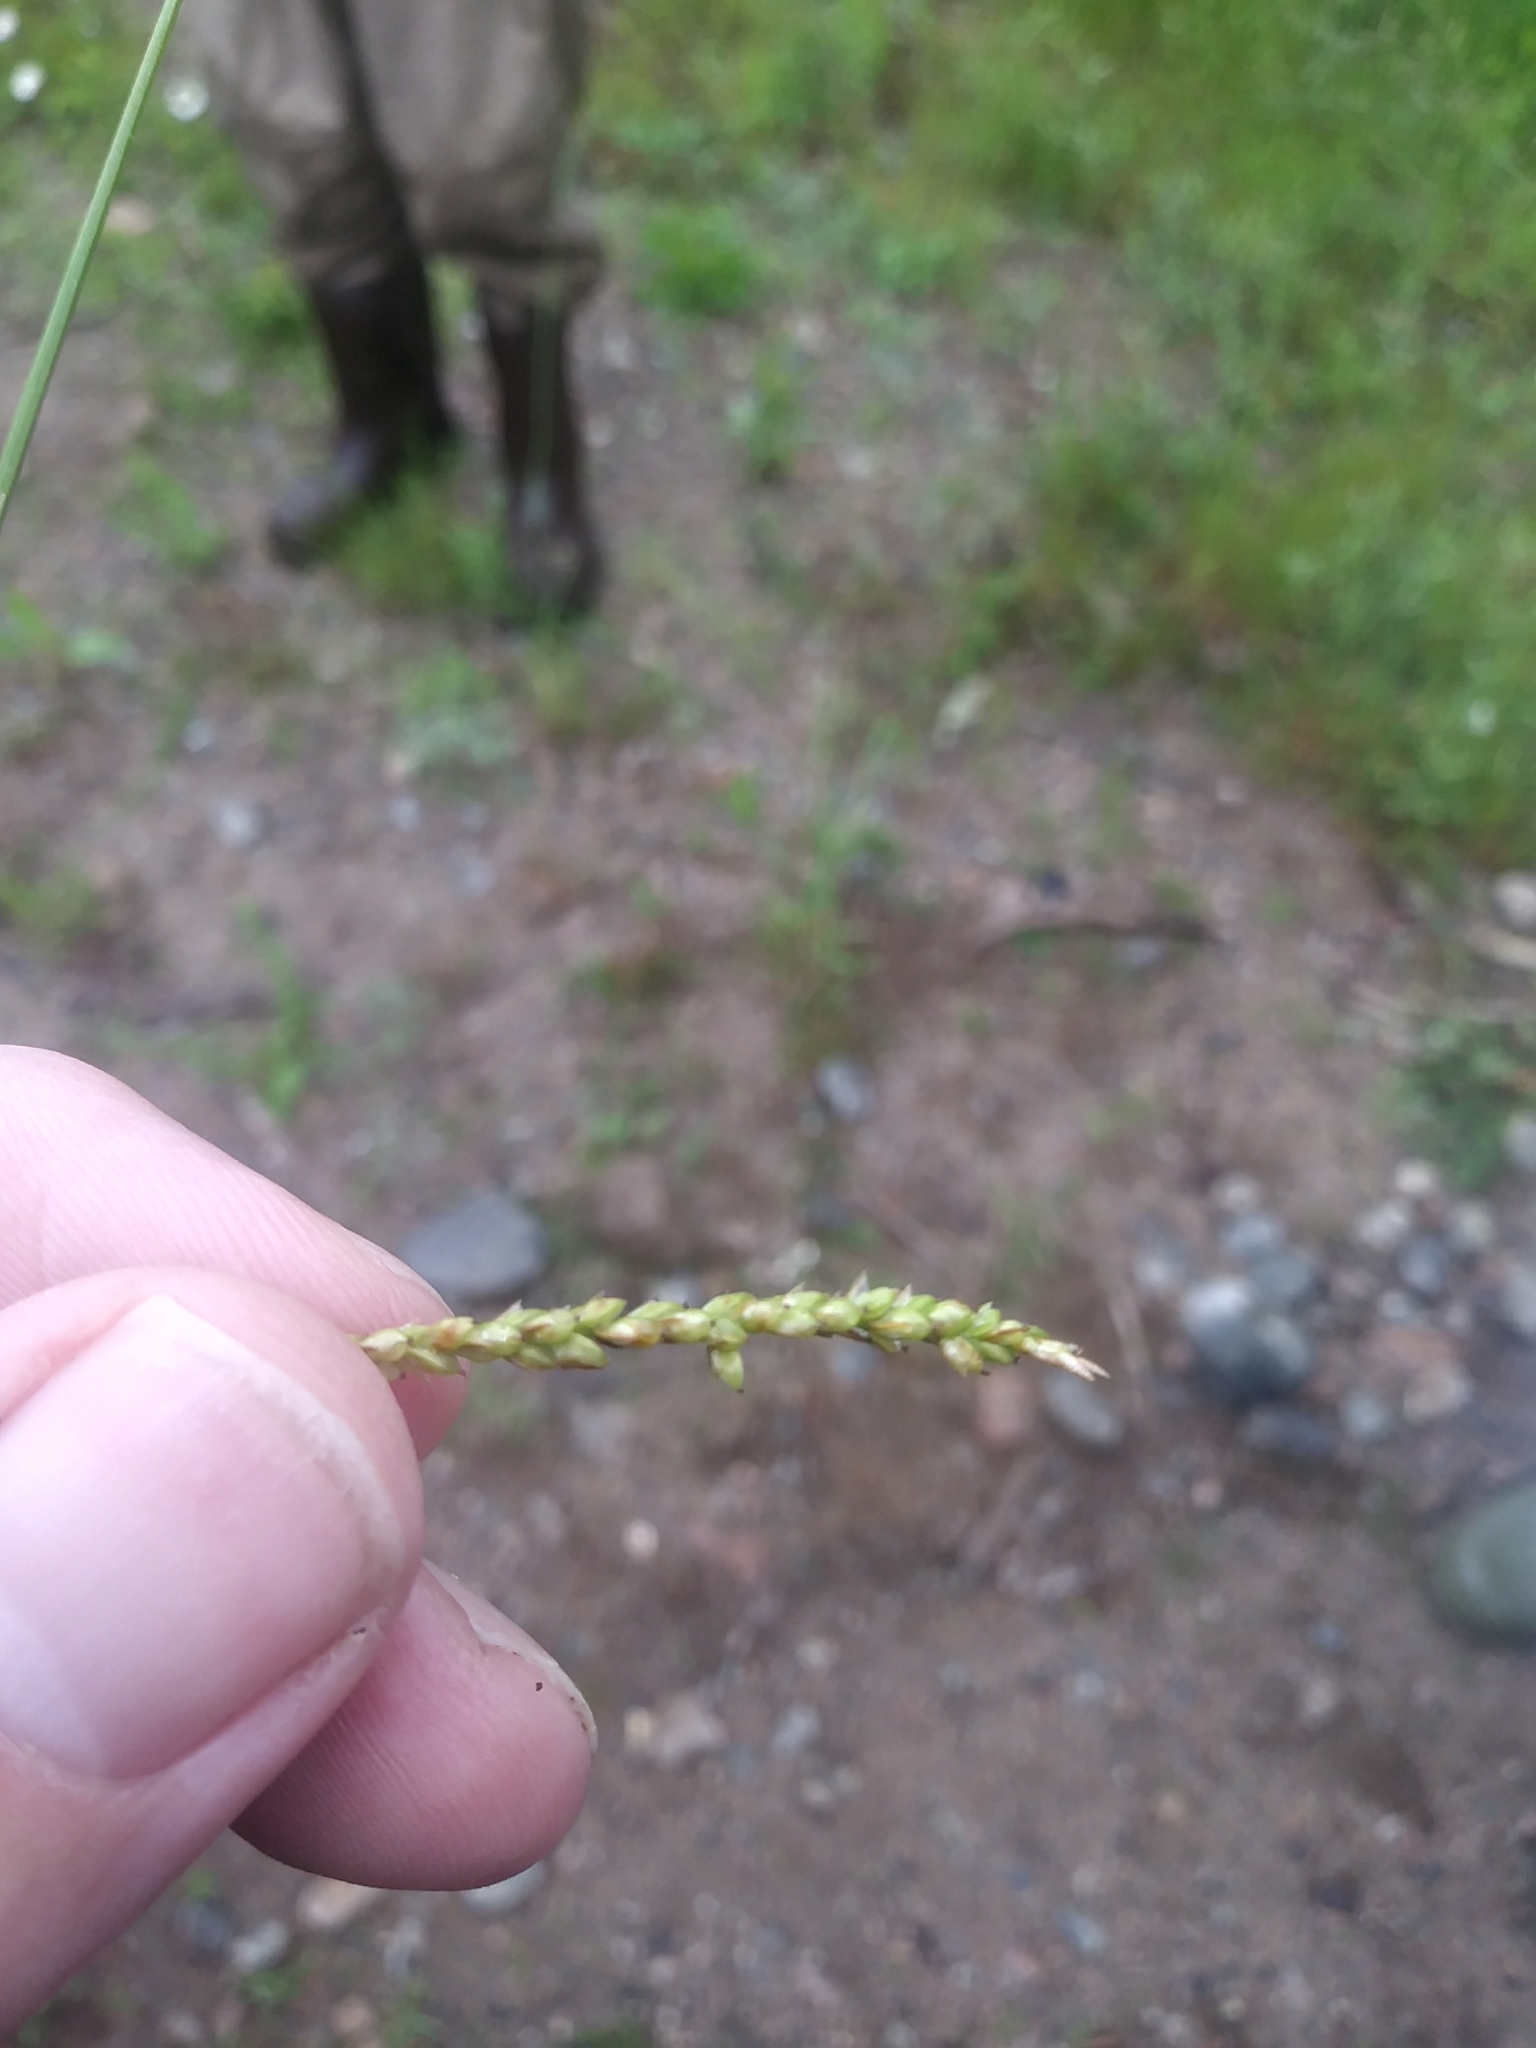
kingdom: Plantae
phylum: Tracheophyta
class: Liliopsida
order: Poales
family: Cyperaceae
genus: Carex
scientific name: Carex gracillima
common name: Graceful sedge
